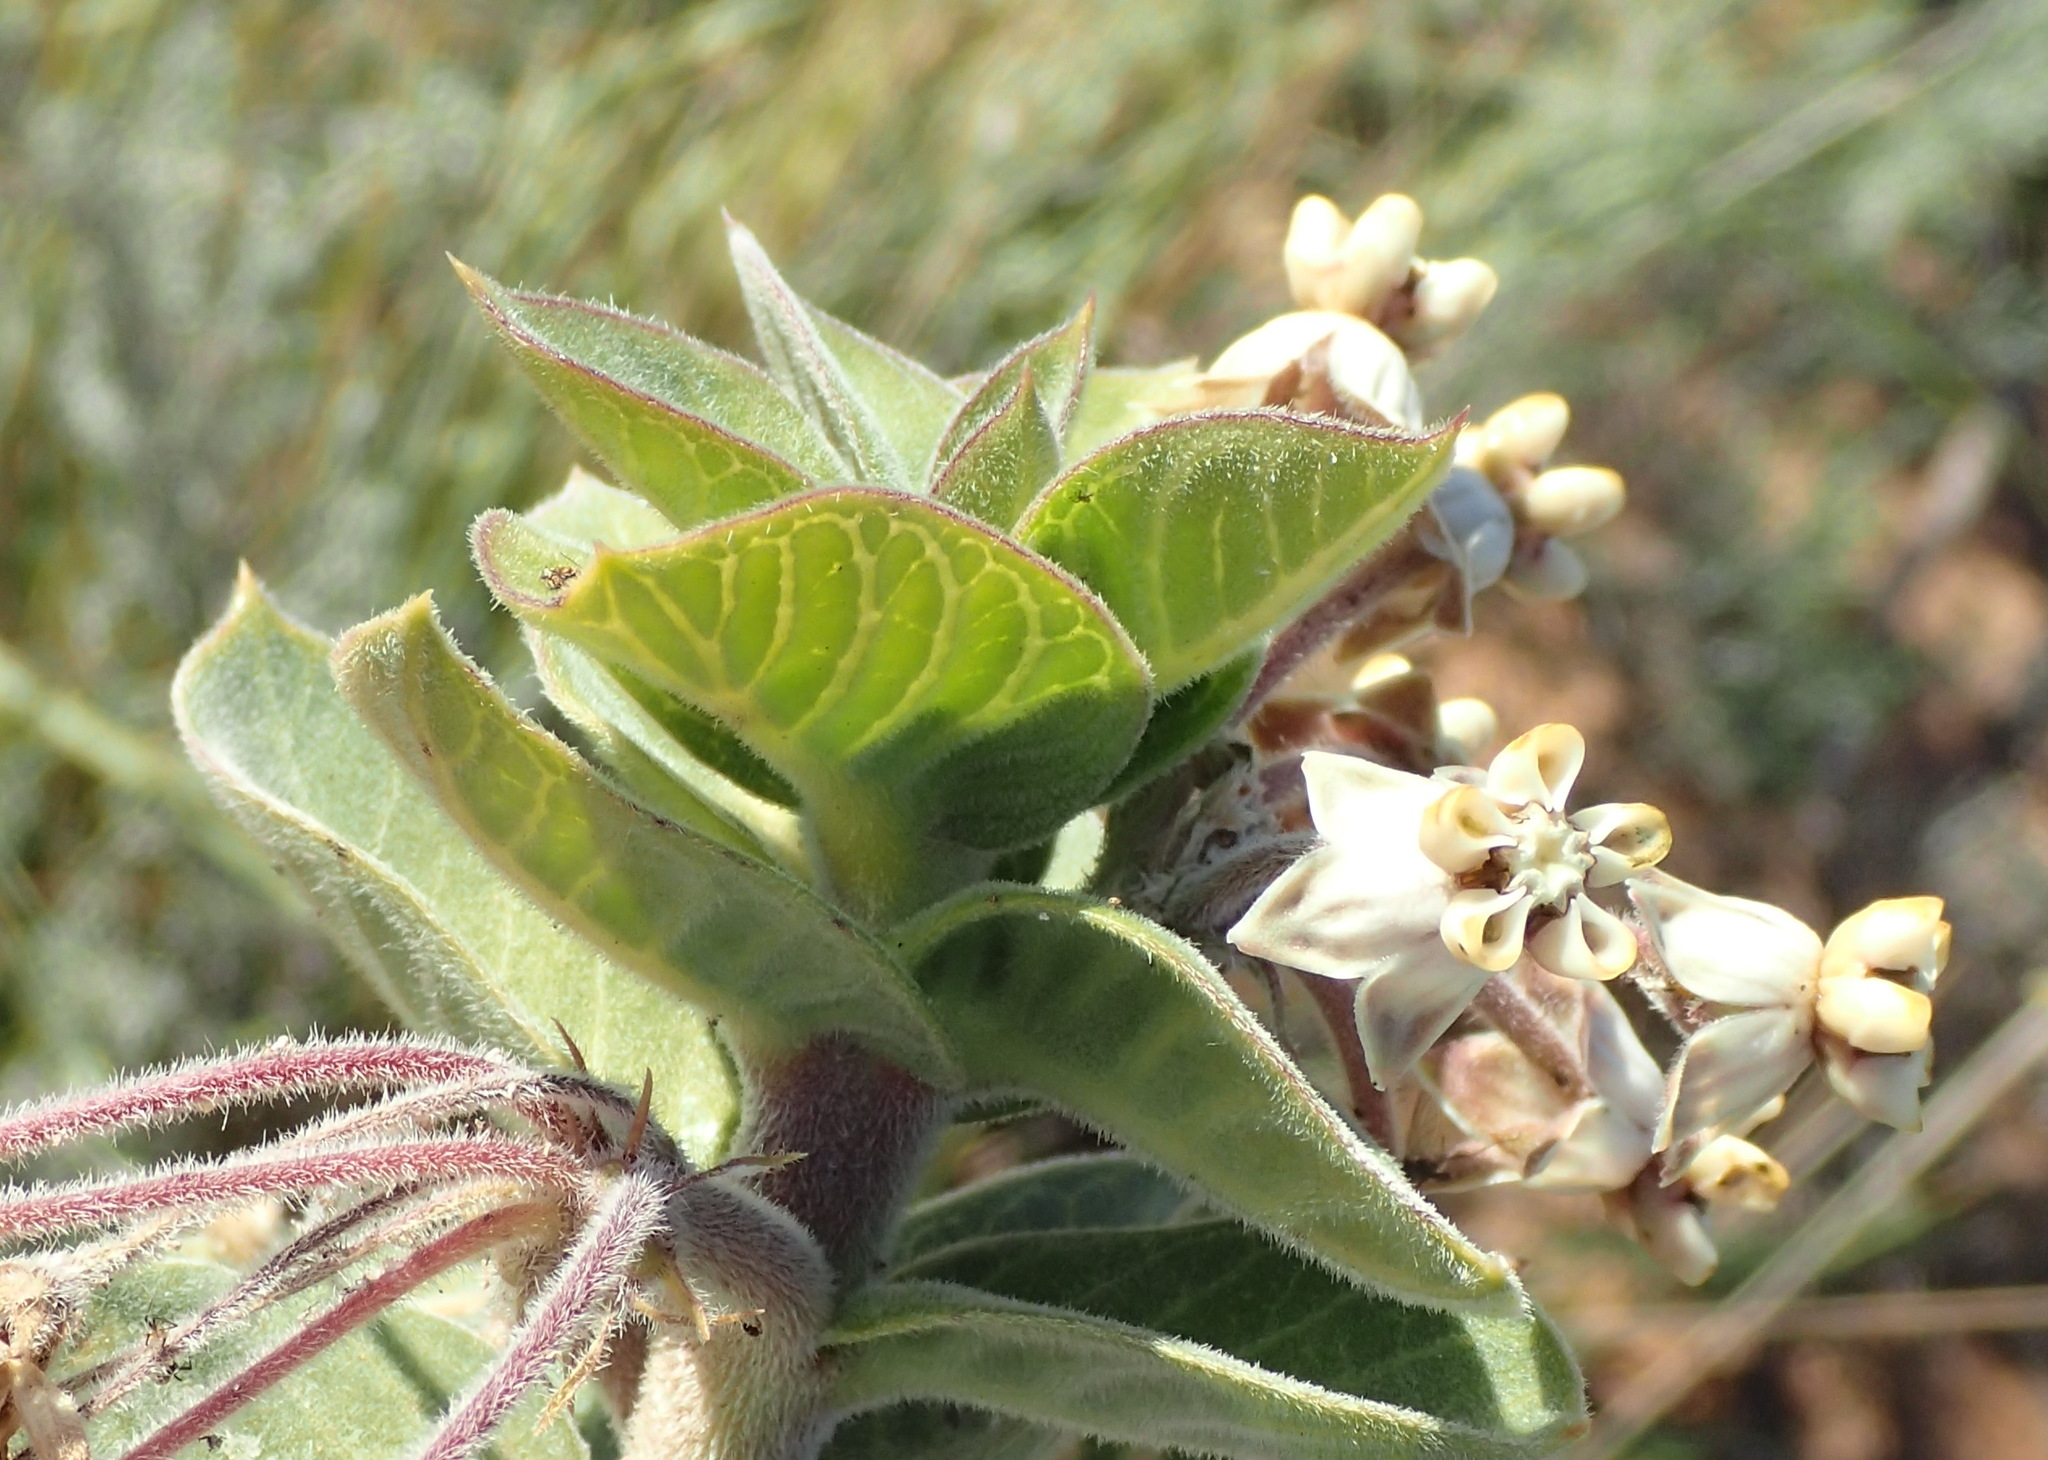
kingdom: Plantae
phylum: Tracheophyta
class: Magnoliopsida
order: Gentianales
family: Apocynaceae
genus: Gomphocarpus
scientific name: Gomphocarpus cancellatus
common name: Wild cotton
